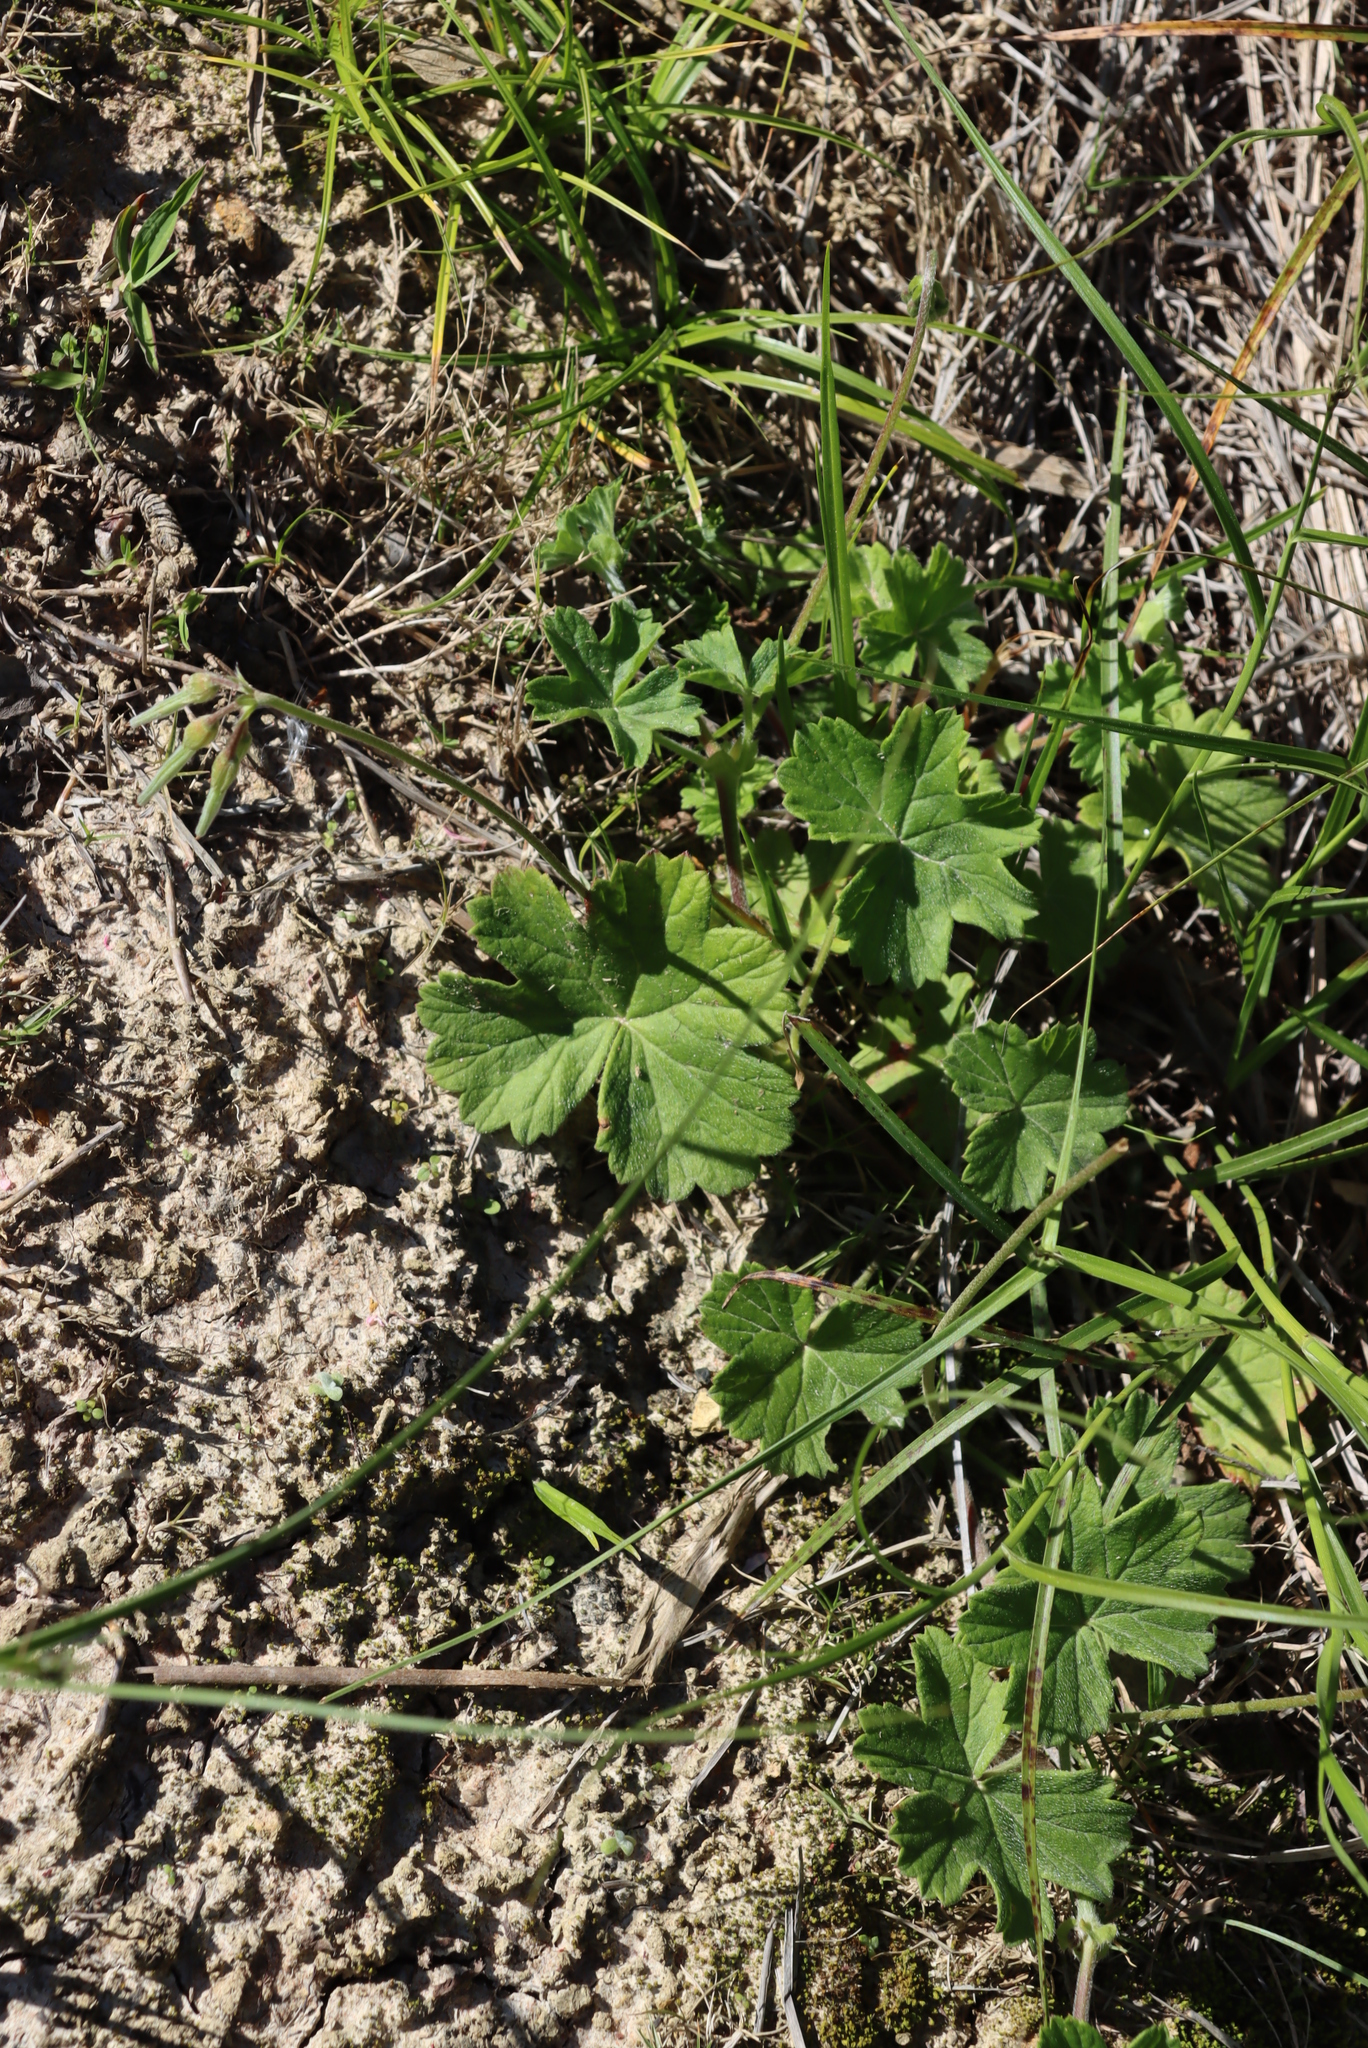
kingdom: Plantae
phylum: Tracheophyta
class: Magnoliopsida
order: Geraniales
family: Geraniaceae
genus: Pelargonium
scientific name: Pelargonium alchemilloides
